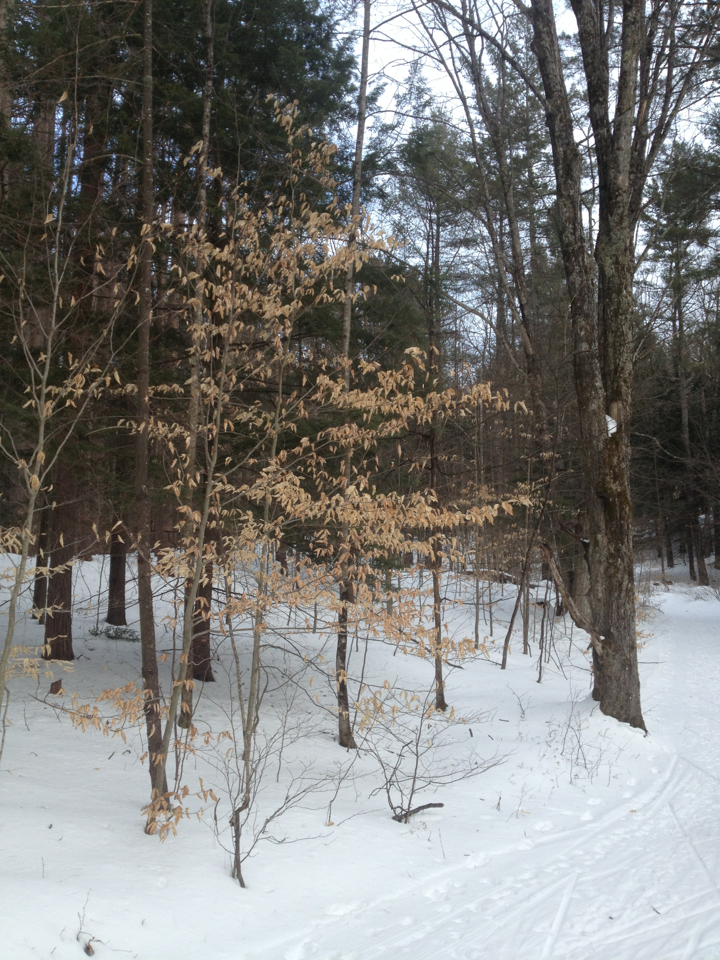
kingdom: Plantae
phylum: Tracheophyta
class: Magnoliopsida
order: Fagales
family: Fagaceae
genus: Fagus
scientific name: Fagus grandifolia
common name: American beech
